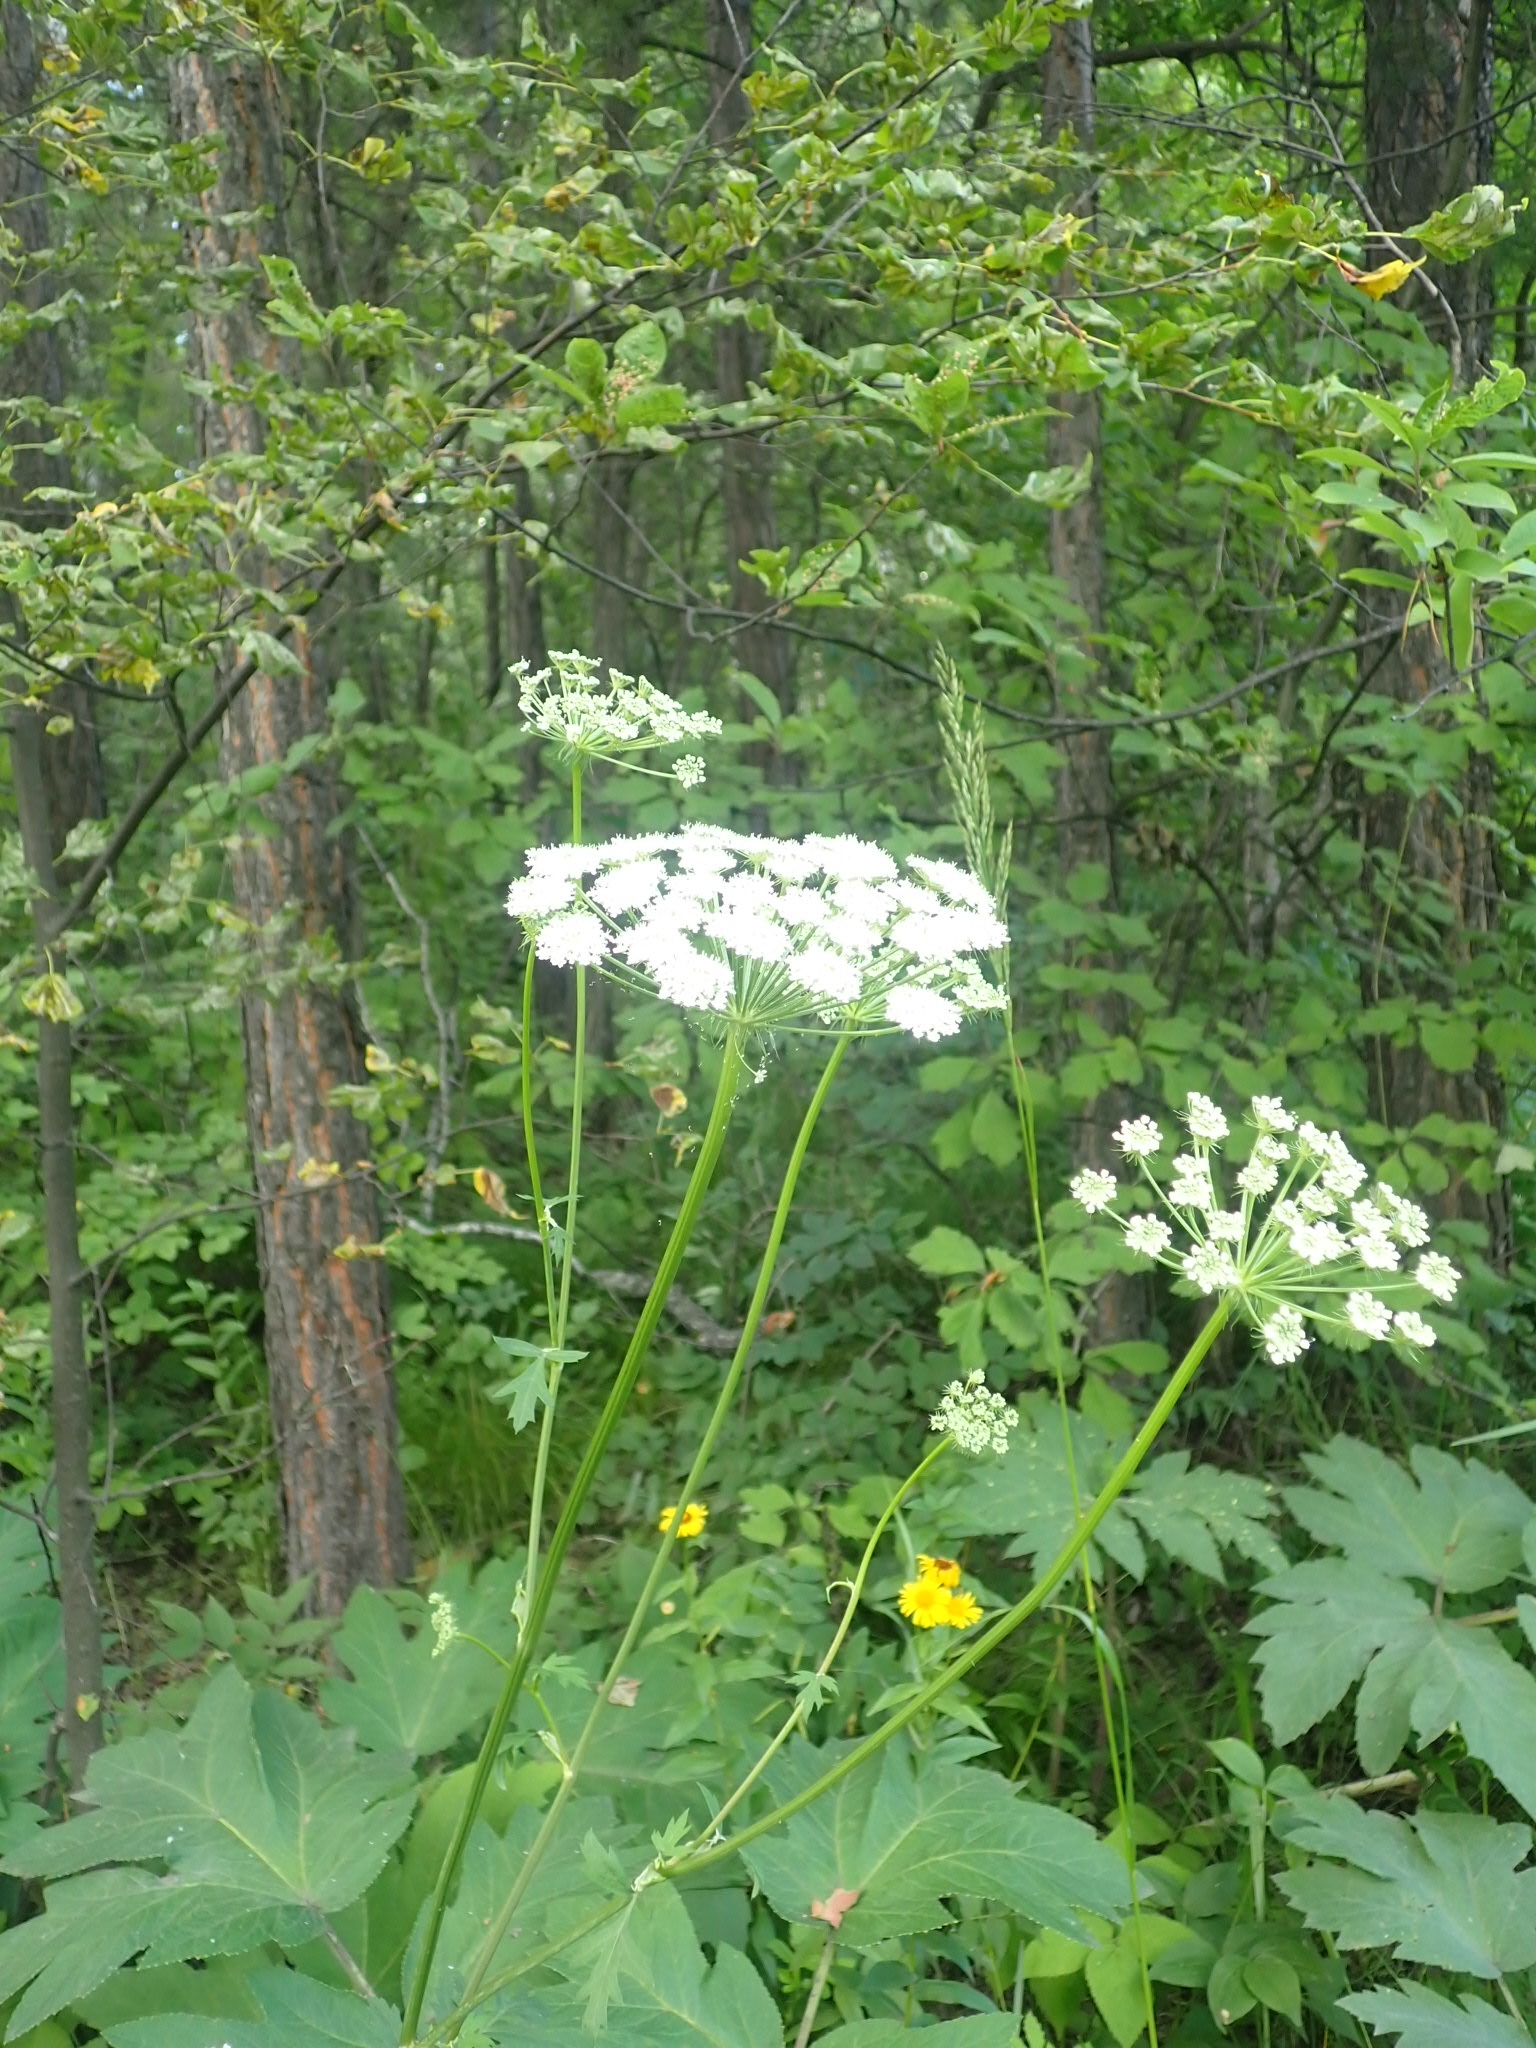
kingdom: Plantae
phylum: Tracheophyta
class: Magnoliopsida
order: Apiales
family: Apiaceae
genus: Heracleum
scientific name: Heracleum dissectum
